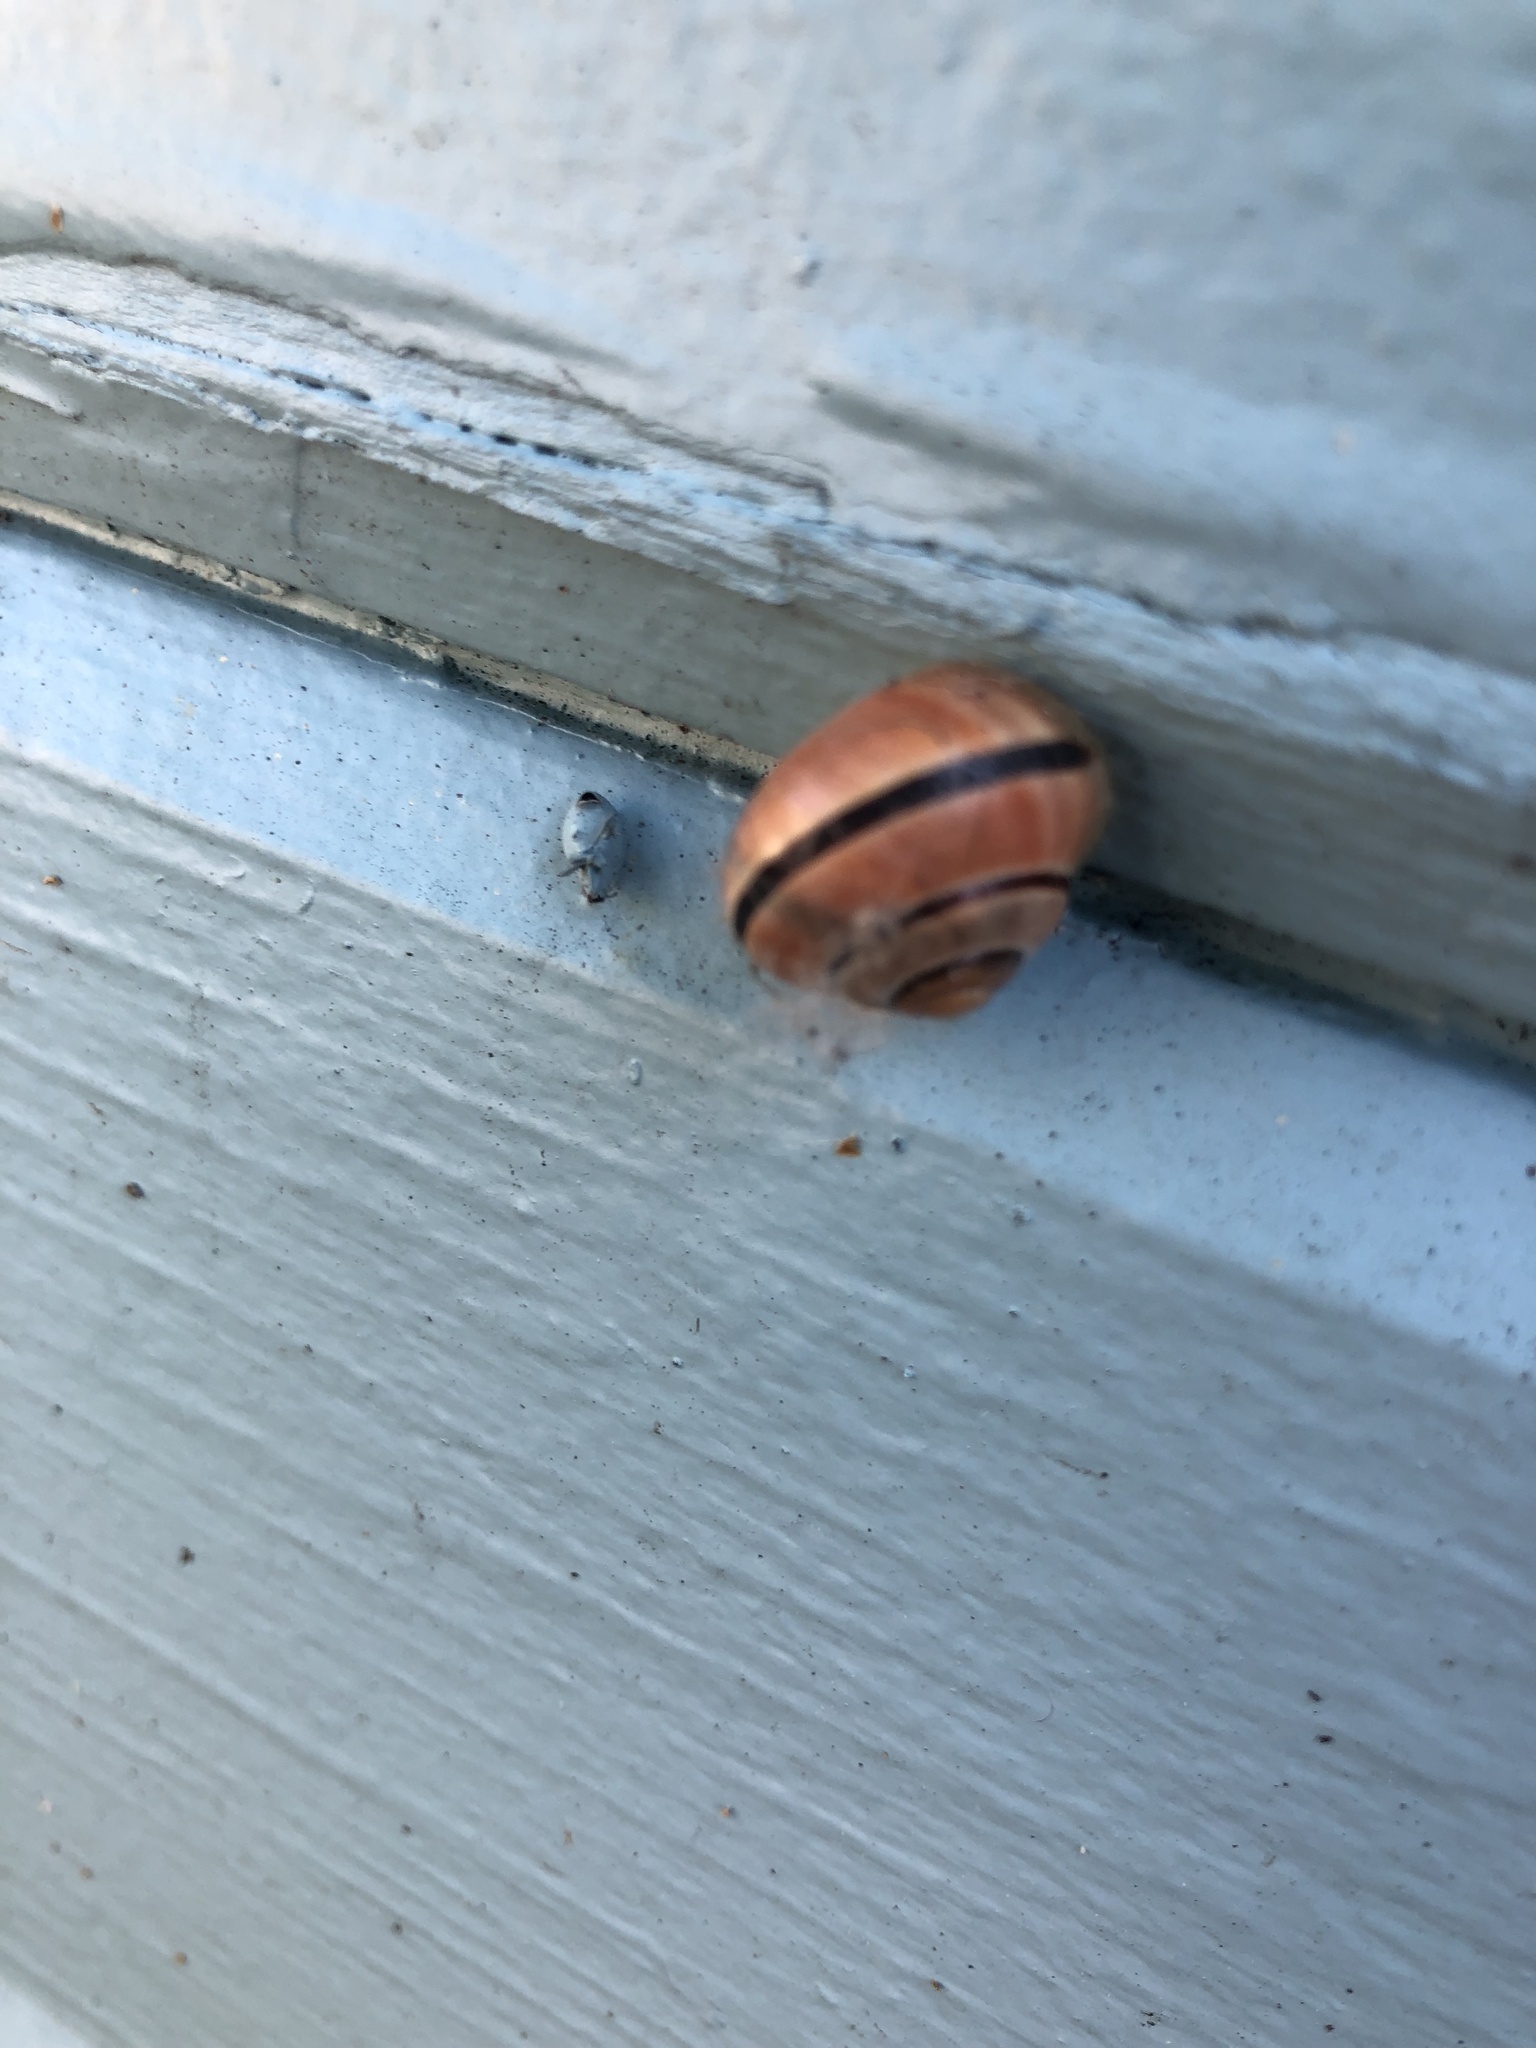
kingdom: Animalia
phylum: Mollusca
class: Gastropoda
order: Stylommatophora
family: Helicidae
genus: Cepaea
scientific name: Cepaea nemoralis
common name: Grovesnail
